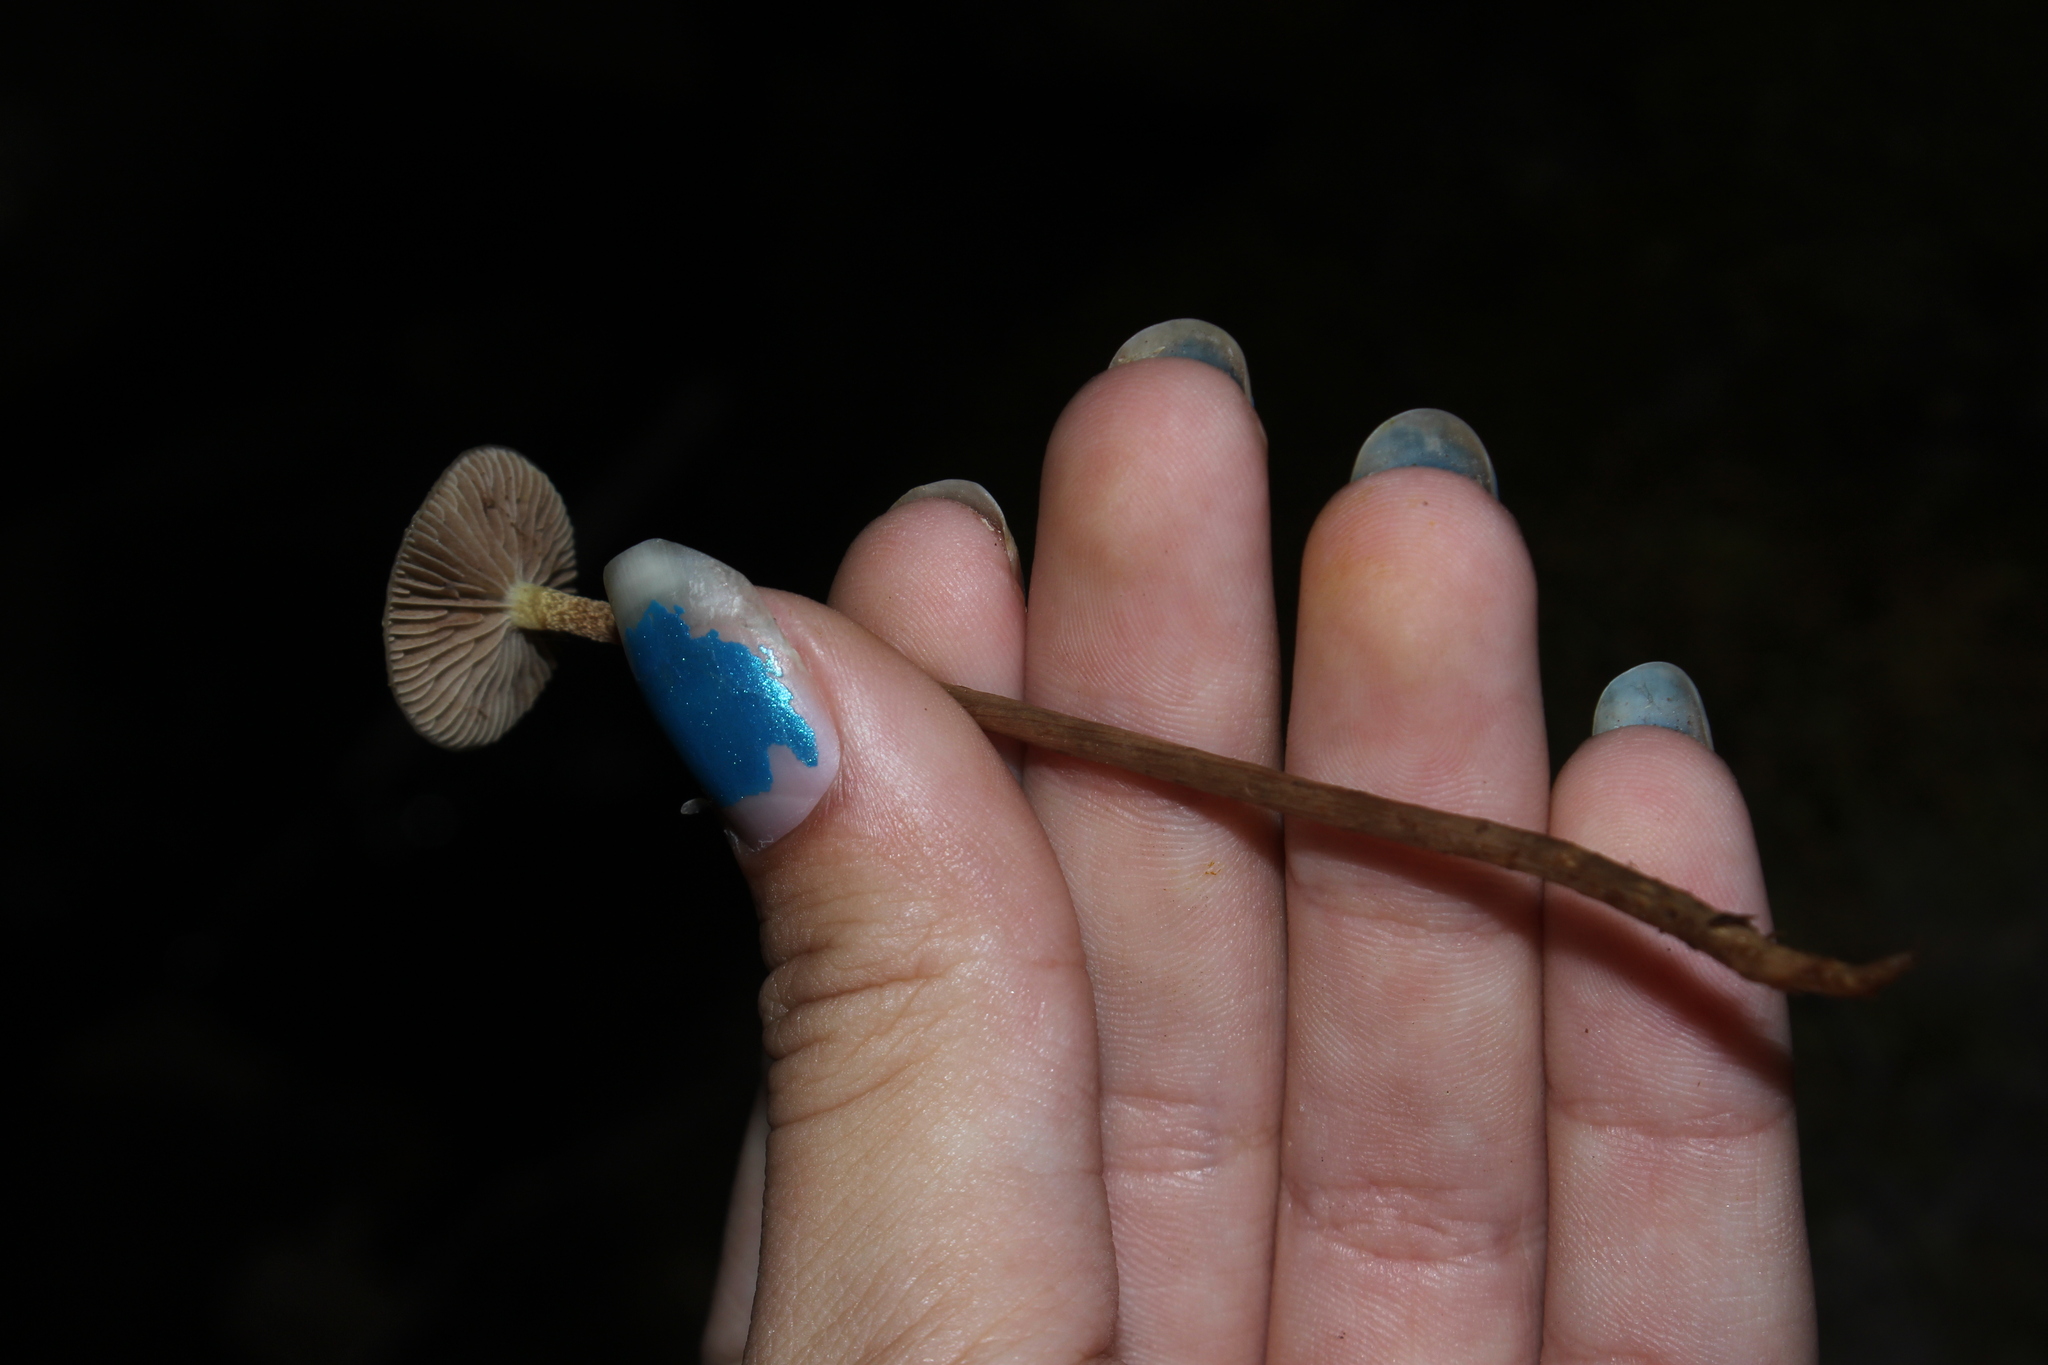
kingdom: Fungi
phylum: Basidiomycota
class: Agaricomycetes
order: Agaricales
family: Strophariaceae
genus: Hypholoma
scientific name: Hypholoma myosotis
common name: Olive brownie
